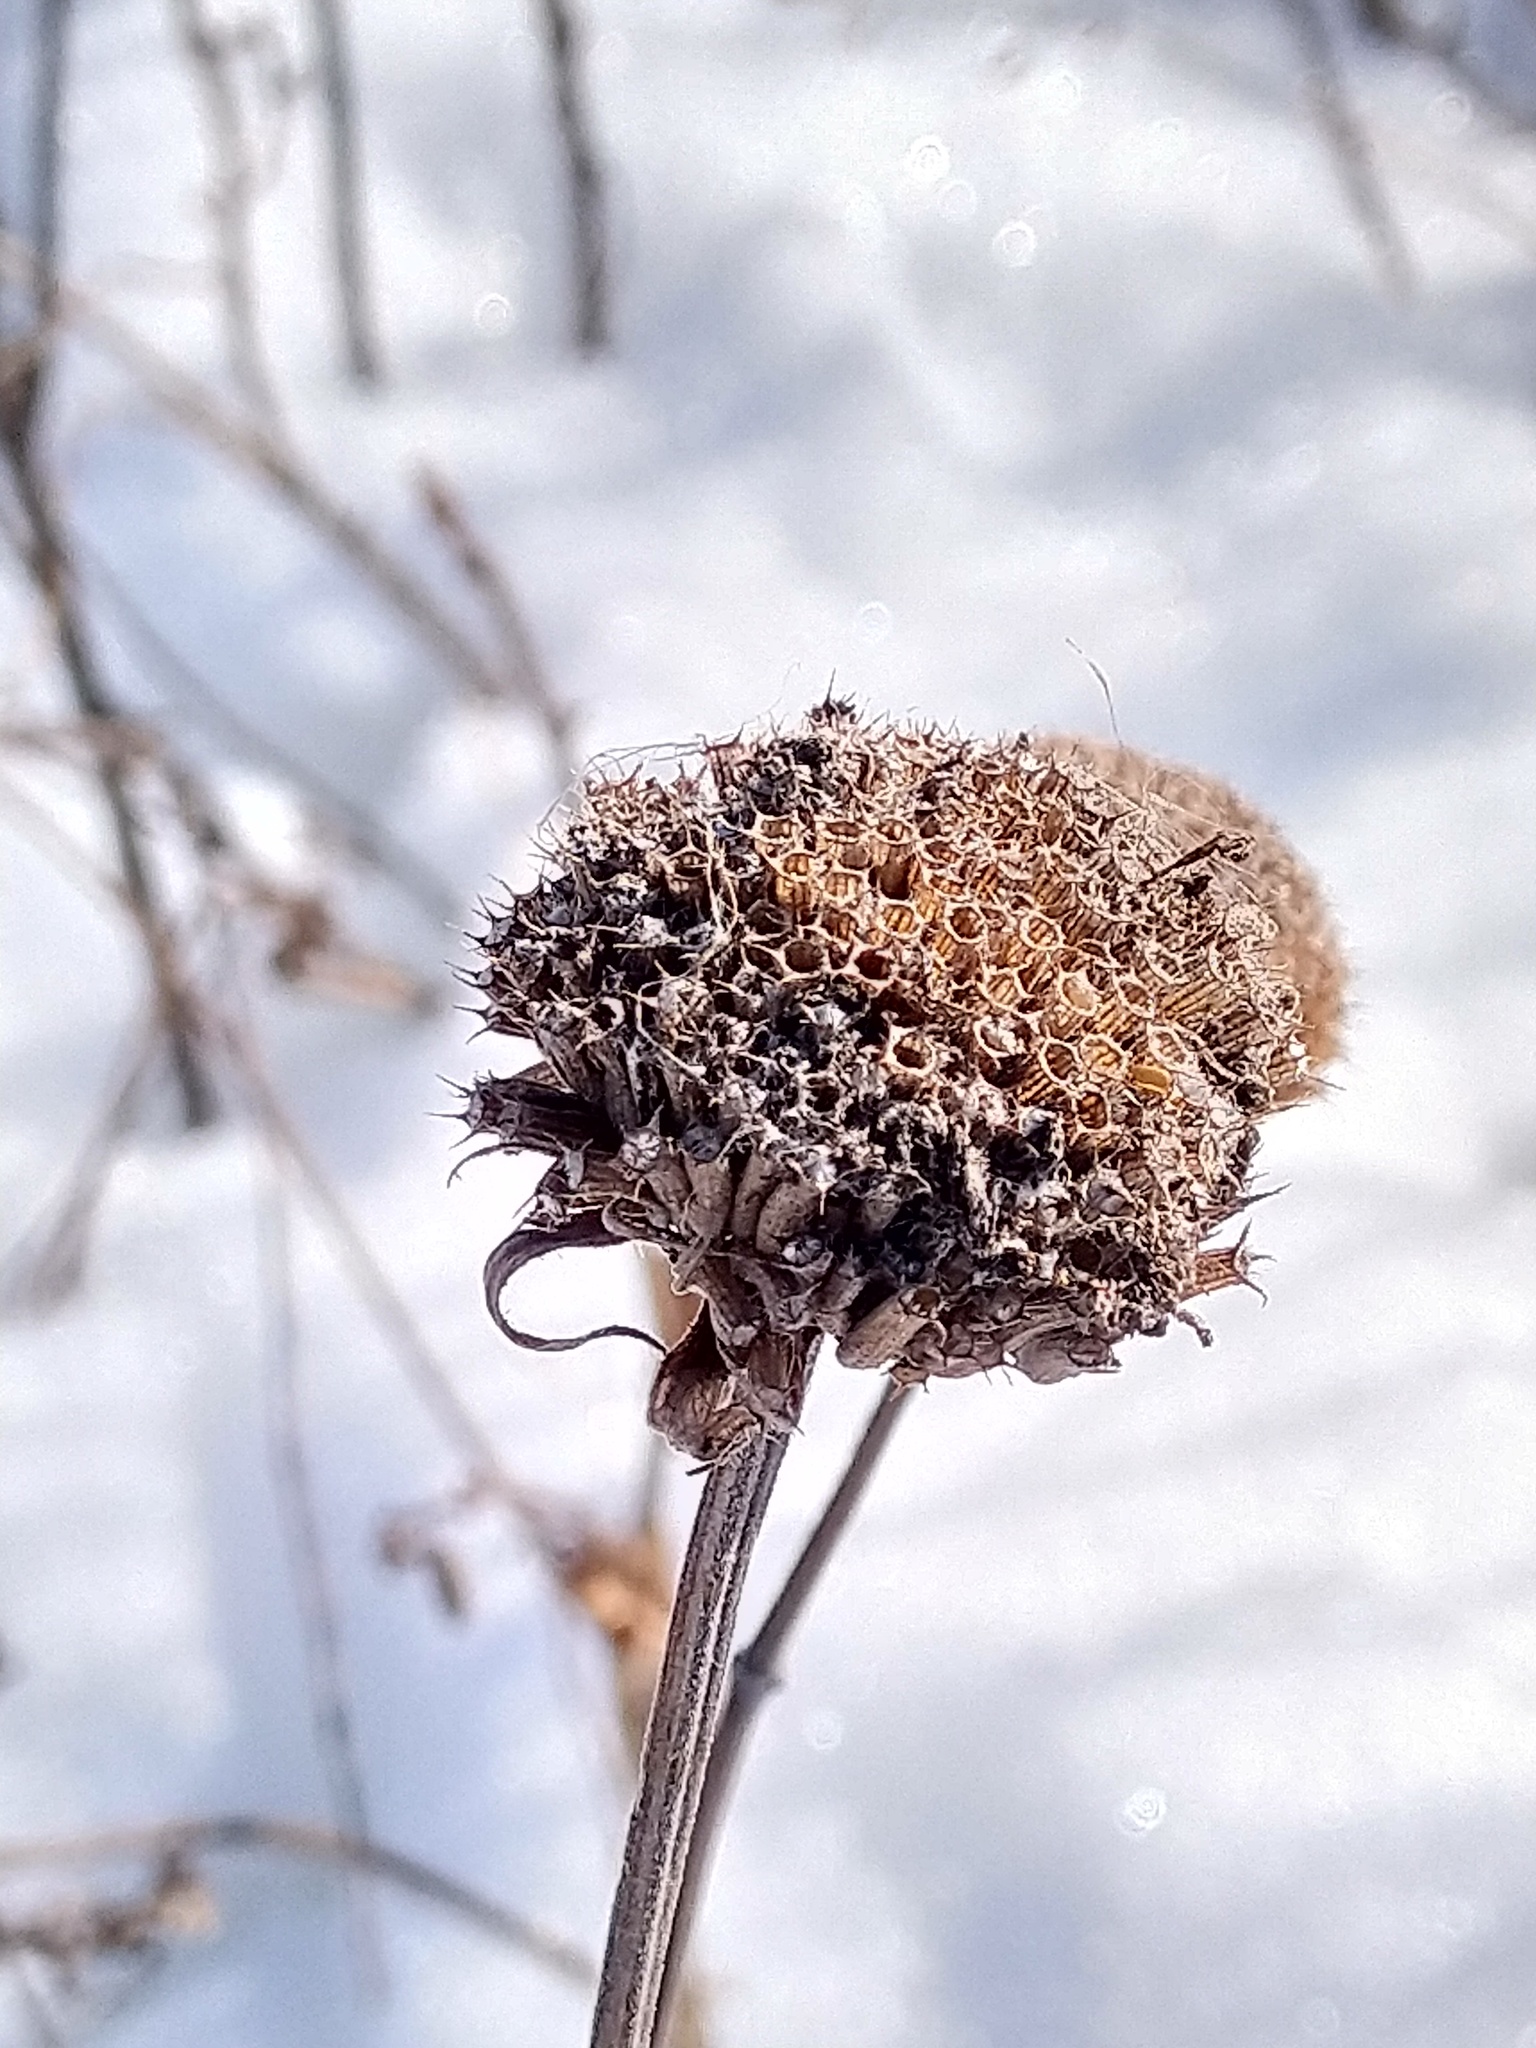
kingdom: Plantae
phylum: Tracheophyta
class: Magnoliopsida
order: Lamiales
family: Lamiaceae
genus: Monarda
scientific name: Monarda fistulosa
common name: Purple beebalm
